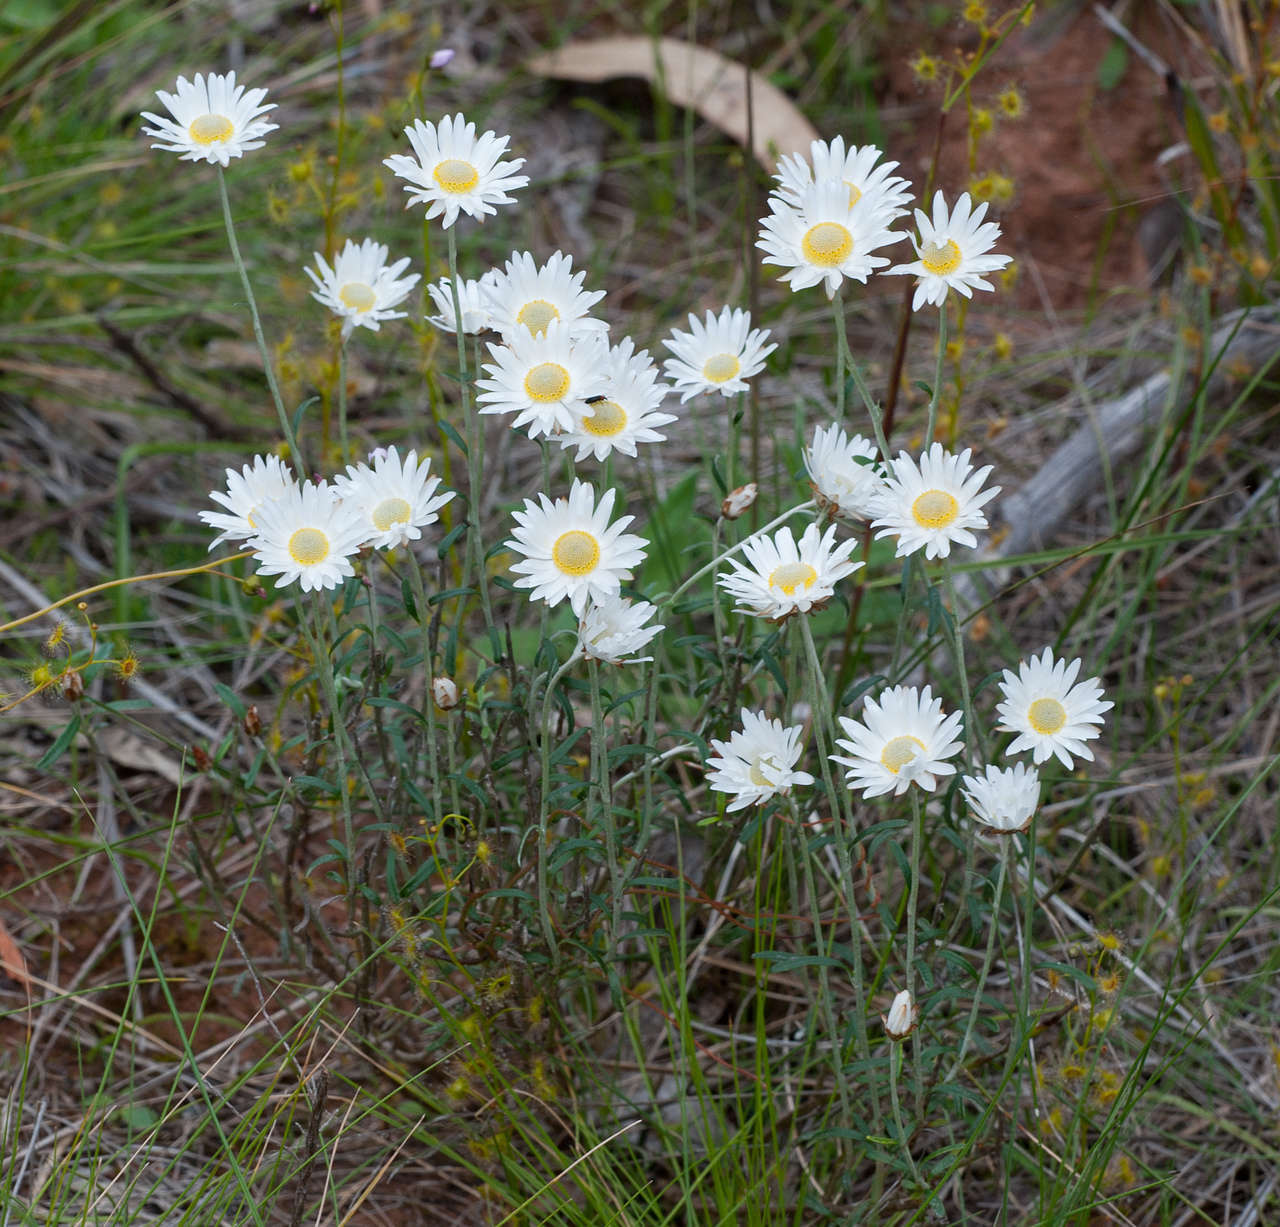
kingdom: Plantae
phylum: Tracheophyta
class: Magnoliopsida
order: Asterales
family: Asteraceae
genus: Argentipallium
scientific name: Argentipallium obtusifolium
